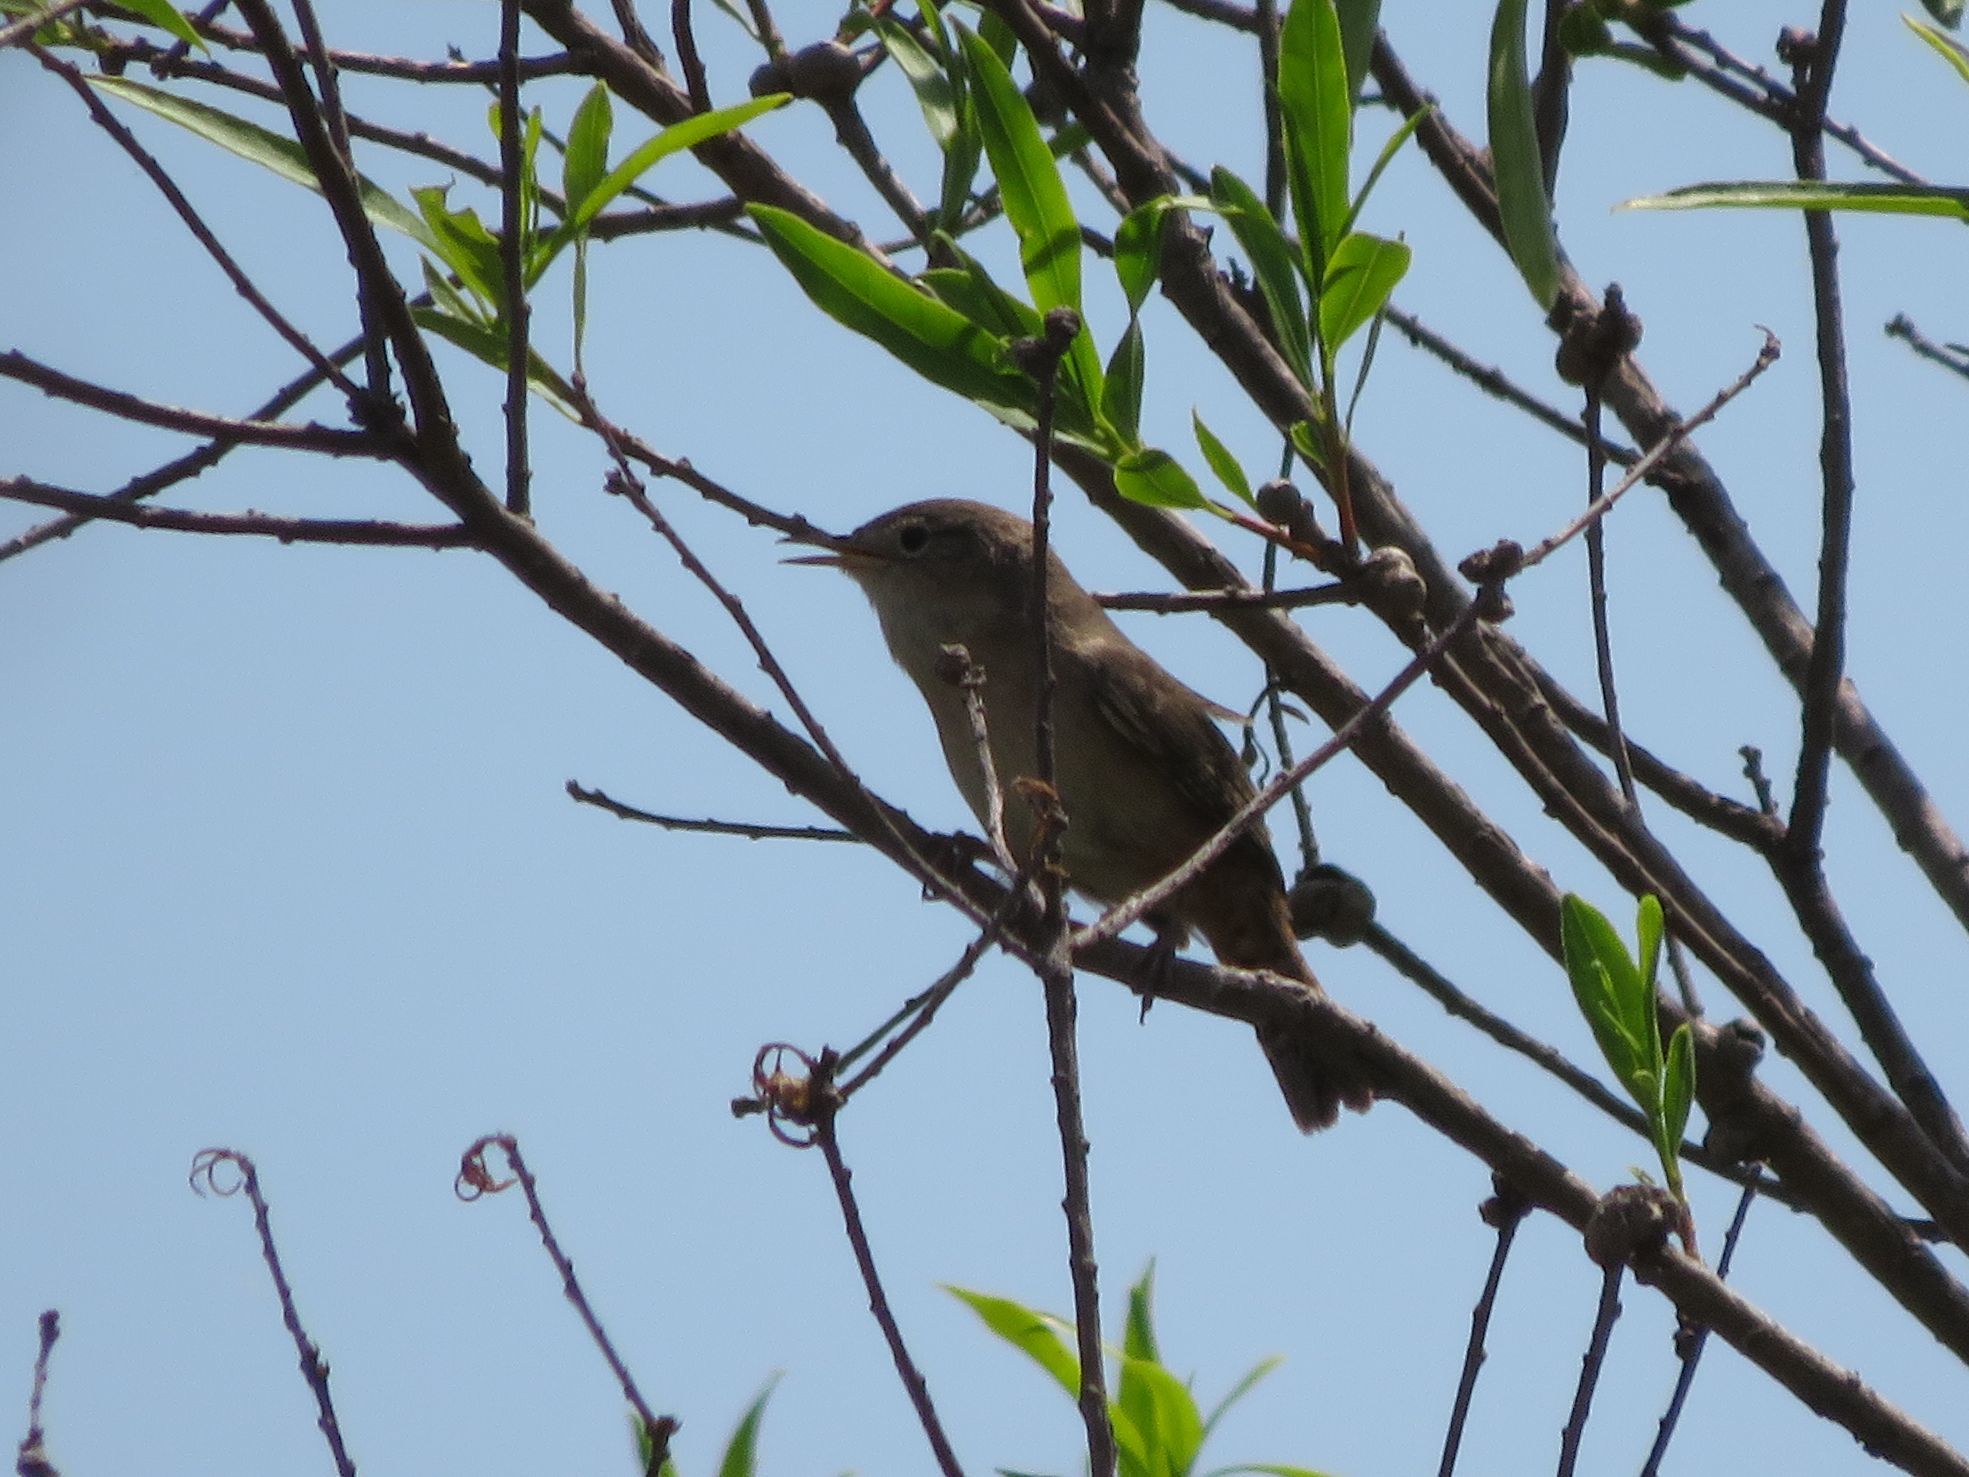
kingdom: Animalia
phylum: Chordata
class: Aves
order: Passeriformes
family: Troglodytidae
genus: Troglodytes
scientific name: Troglodytes aedon
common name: House wren
